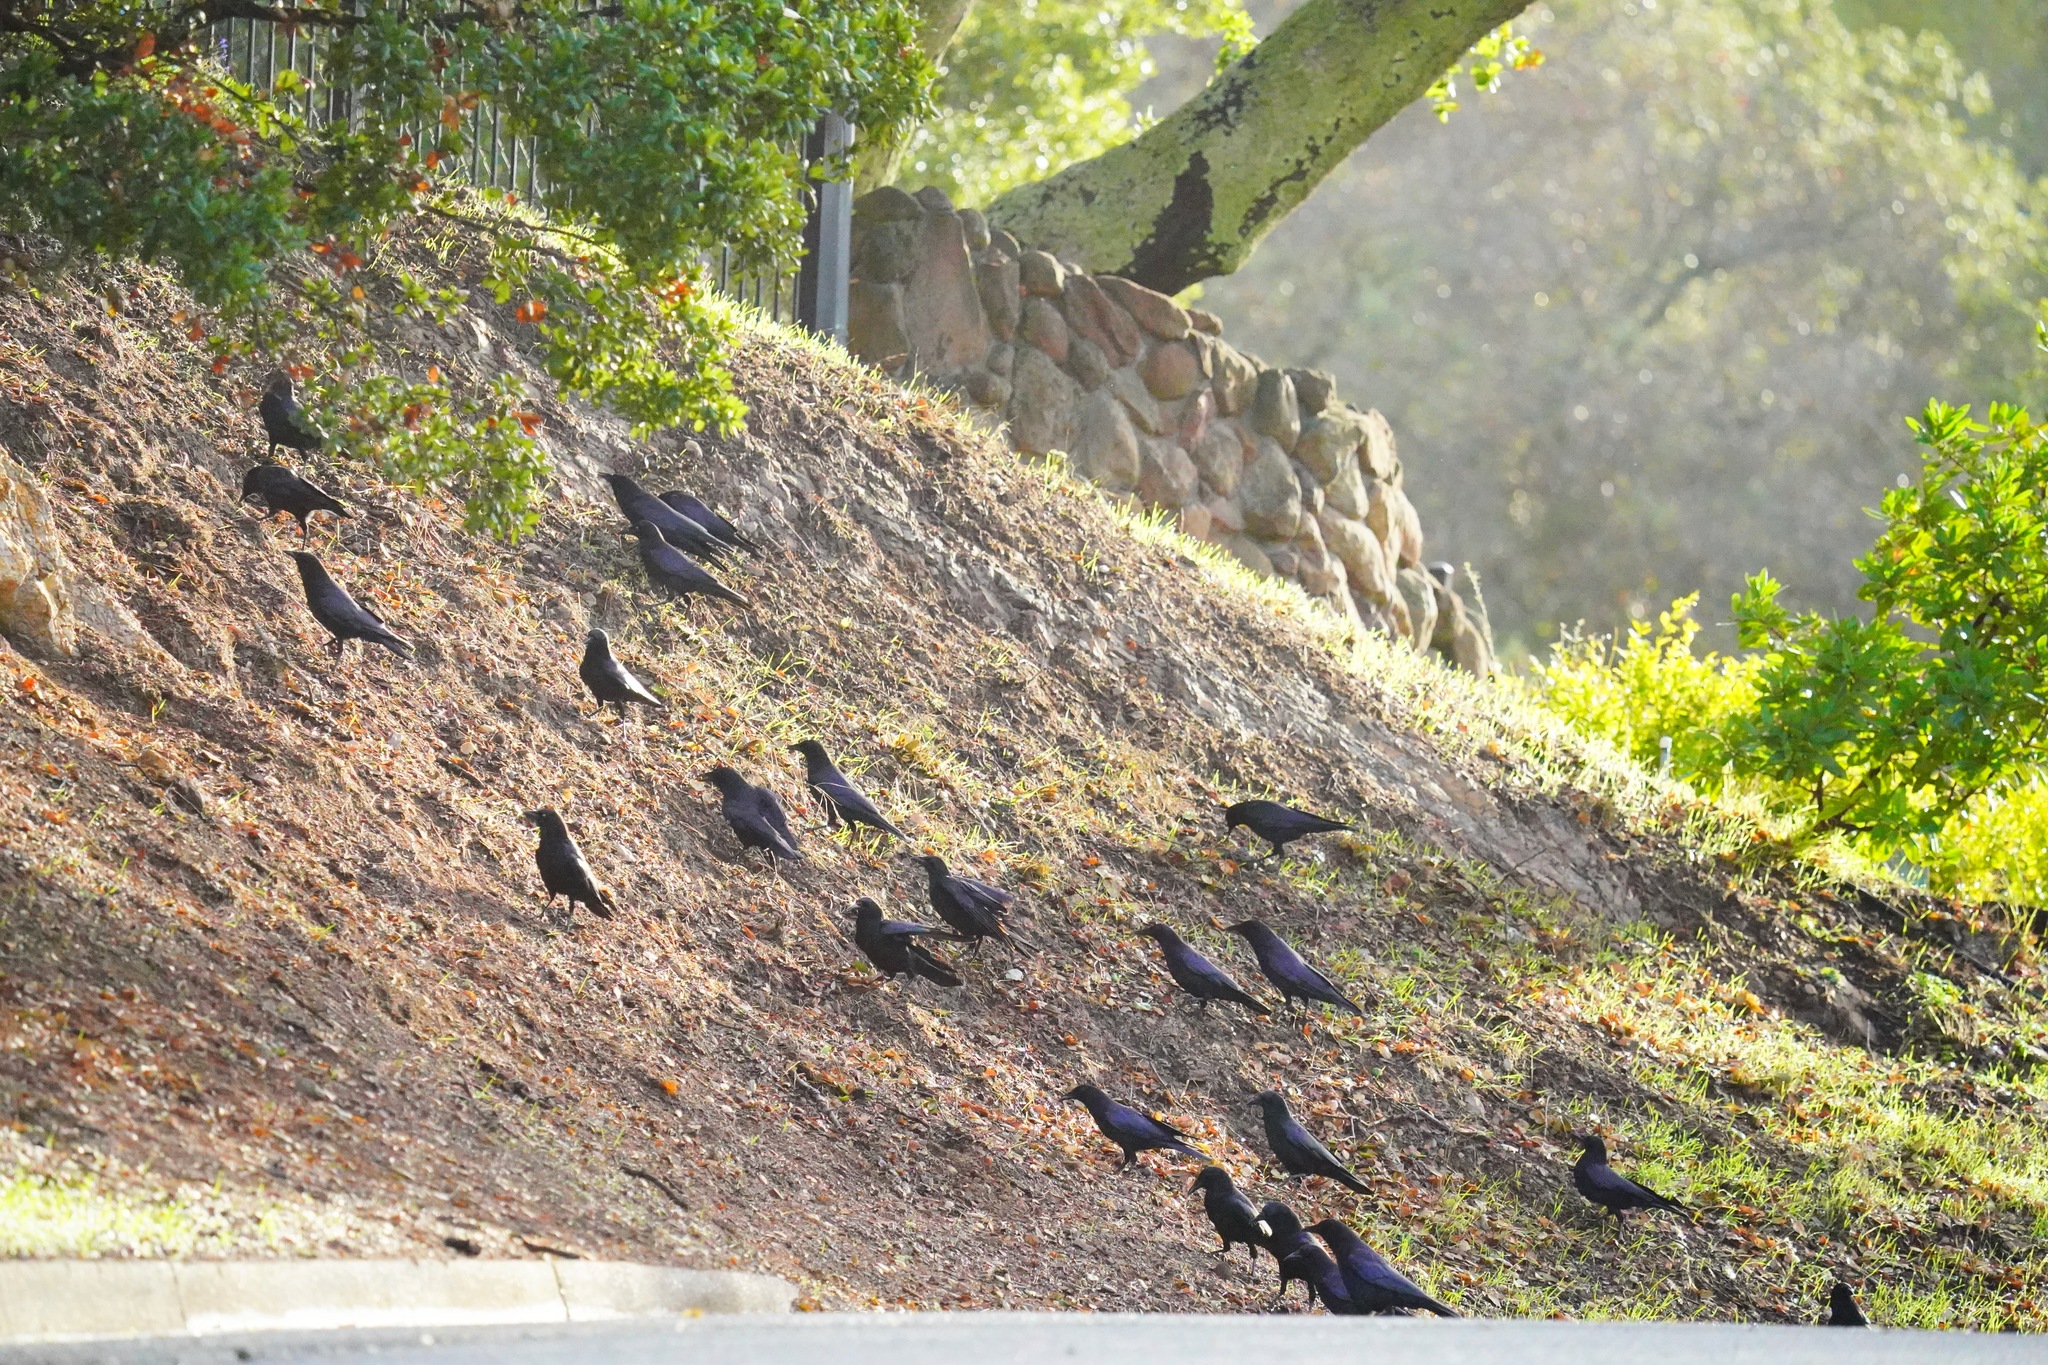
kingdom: Animalia
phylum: Chordata
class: Aves
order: Passeriformes
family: Corvidae
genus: Corvus
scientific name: Corvus brachyrhynchos
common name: American crow
